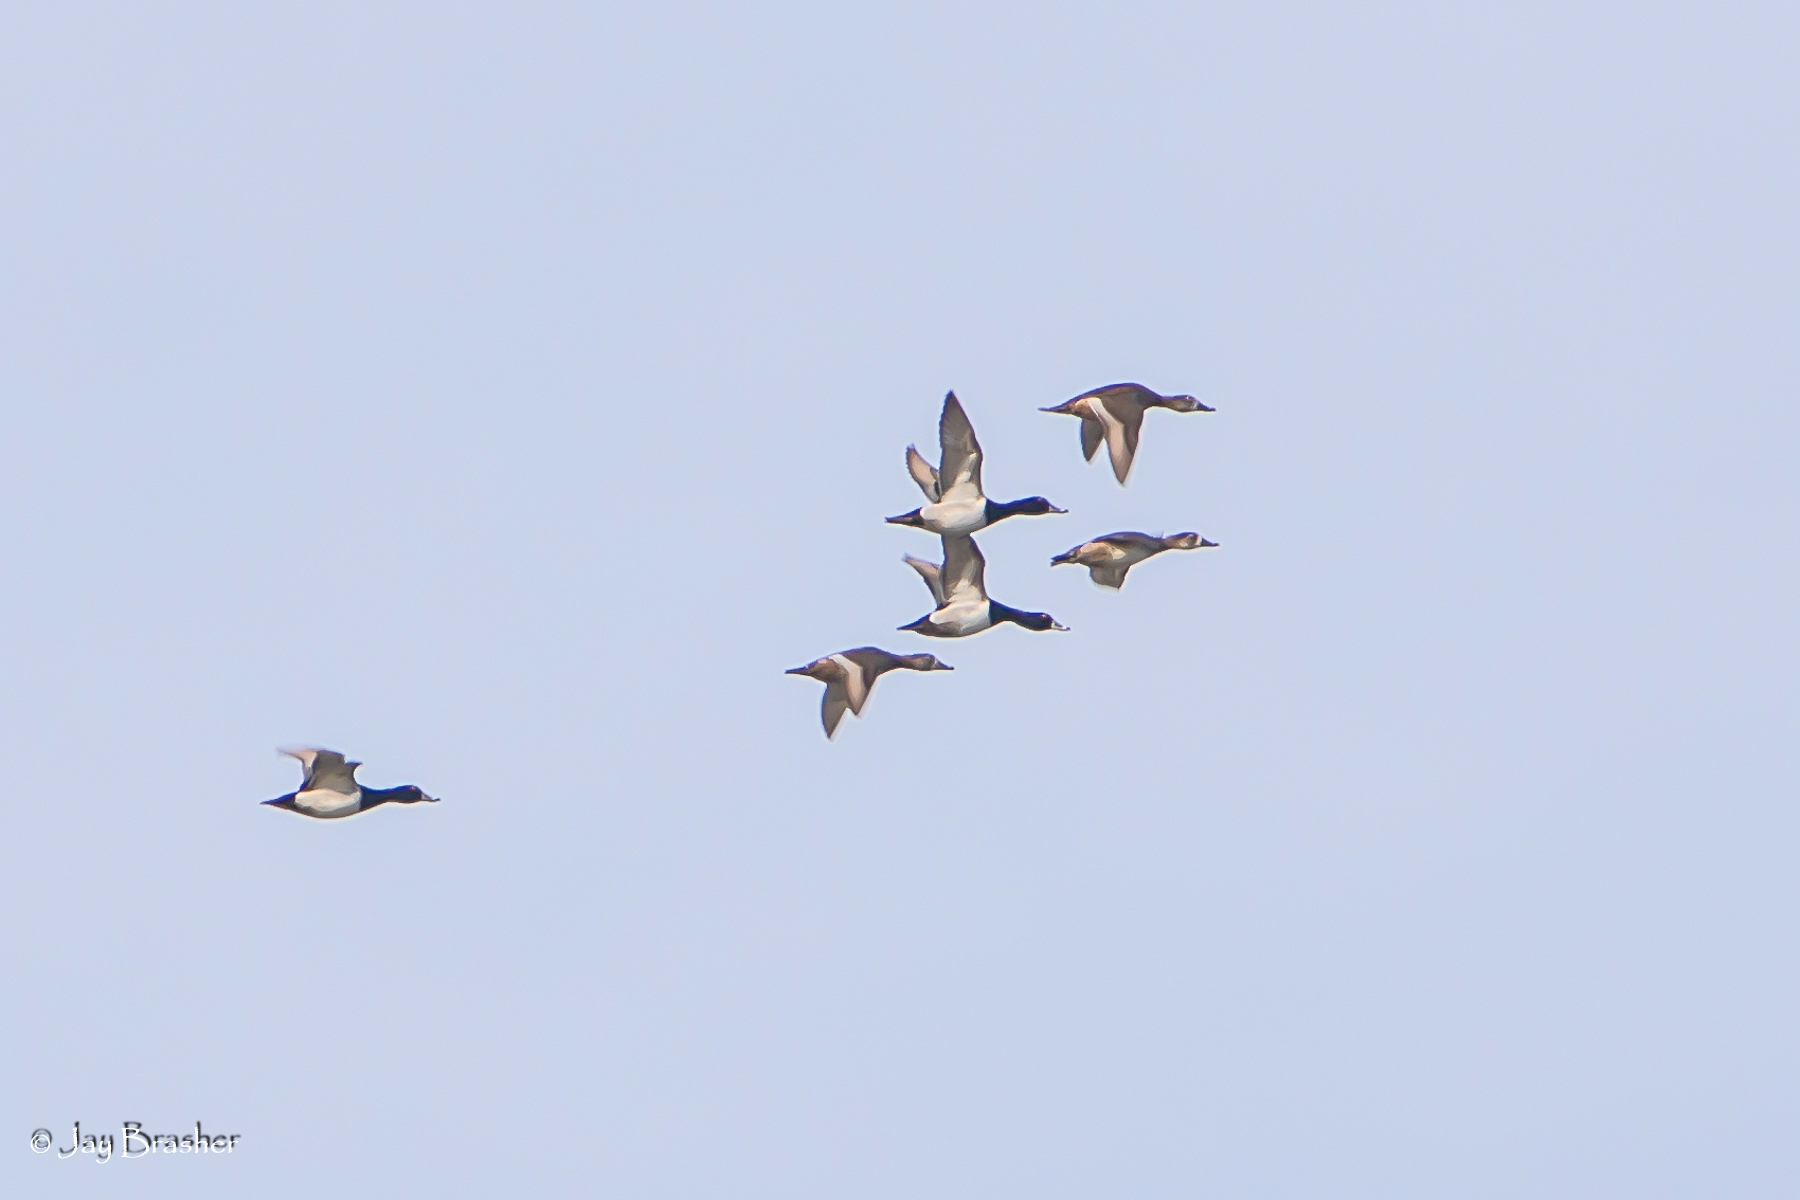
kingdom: Animalia
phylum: Chordata
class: Aves
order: Anseriformes
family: Anatidae
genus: Aythya
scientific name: Aythya collaris
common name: Ring-necked duck
